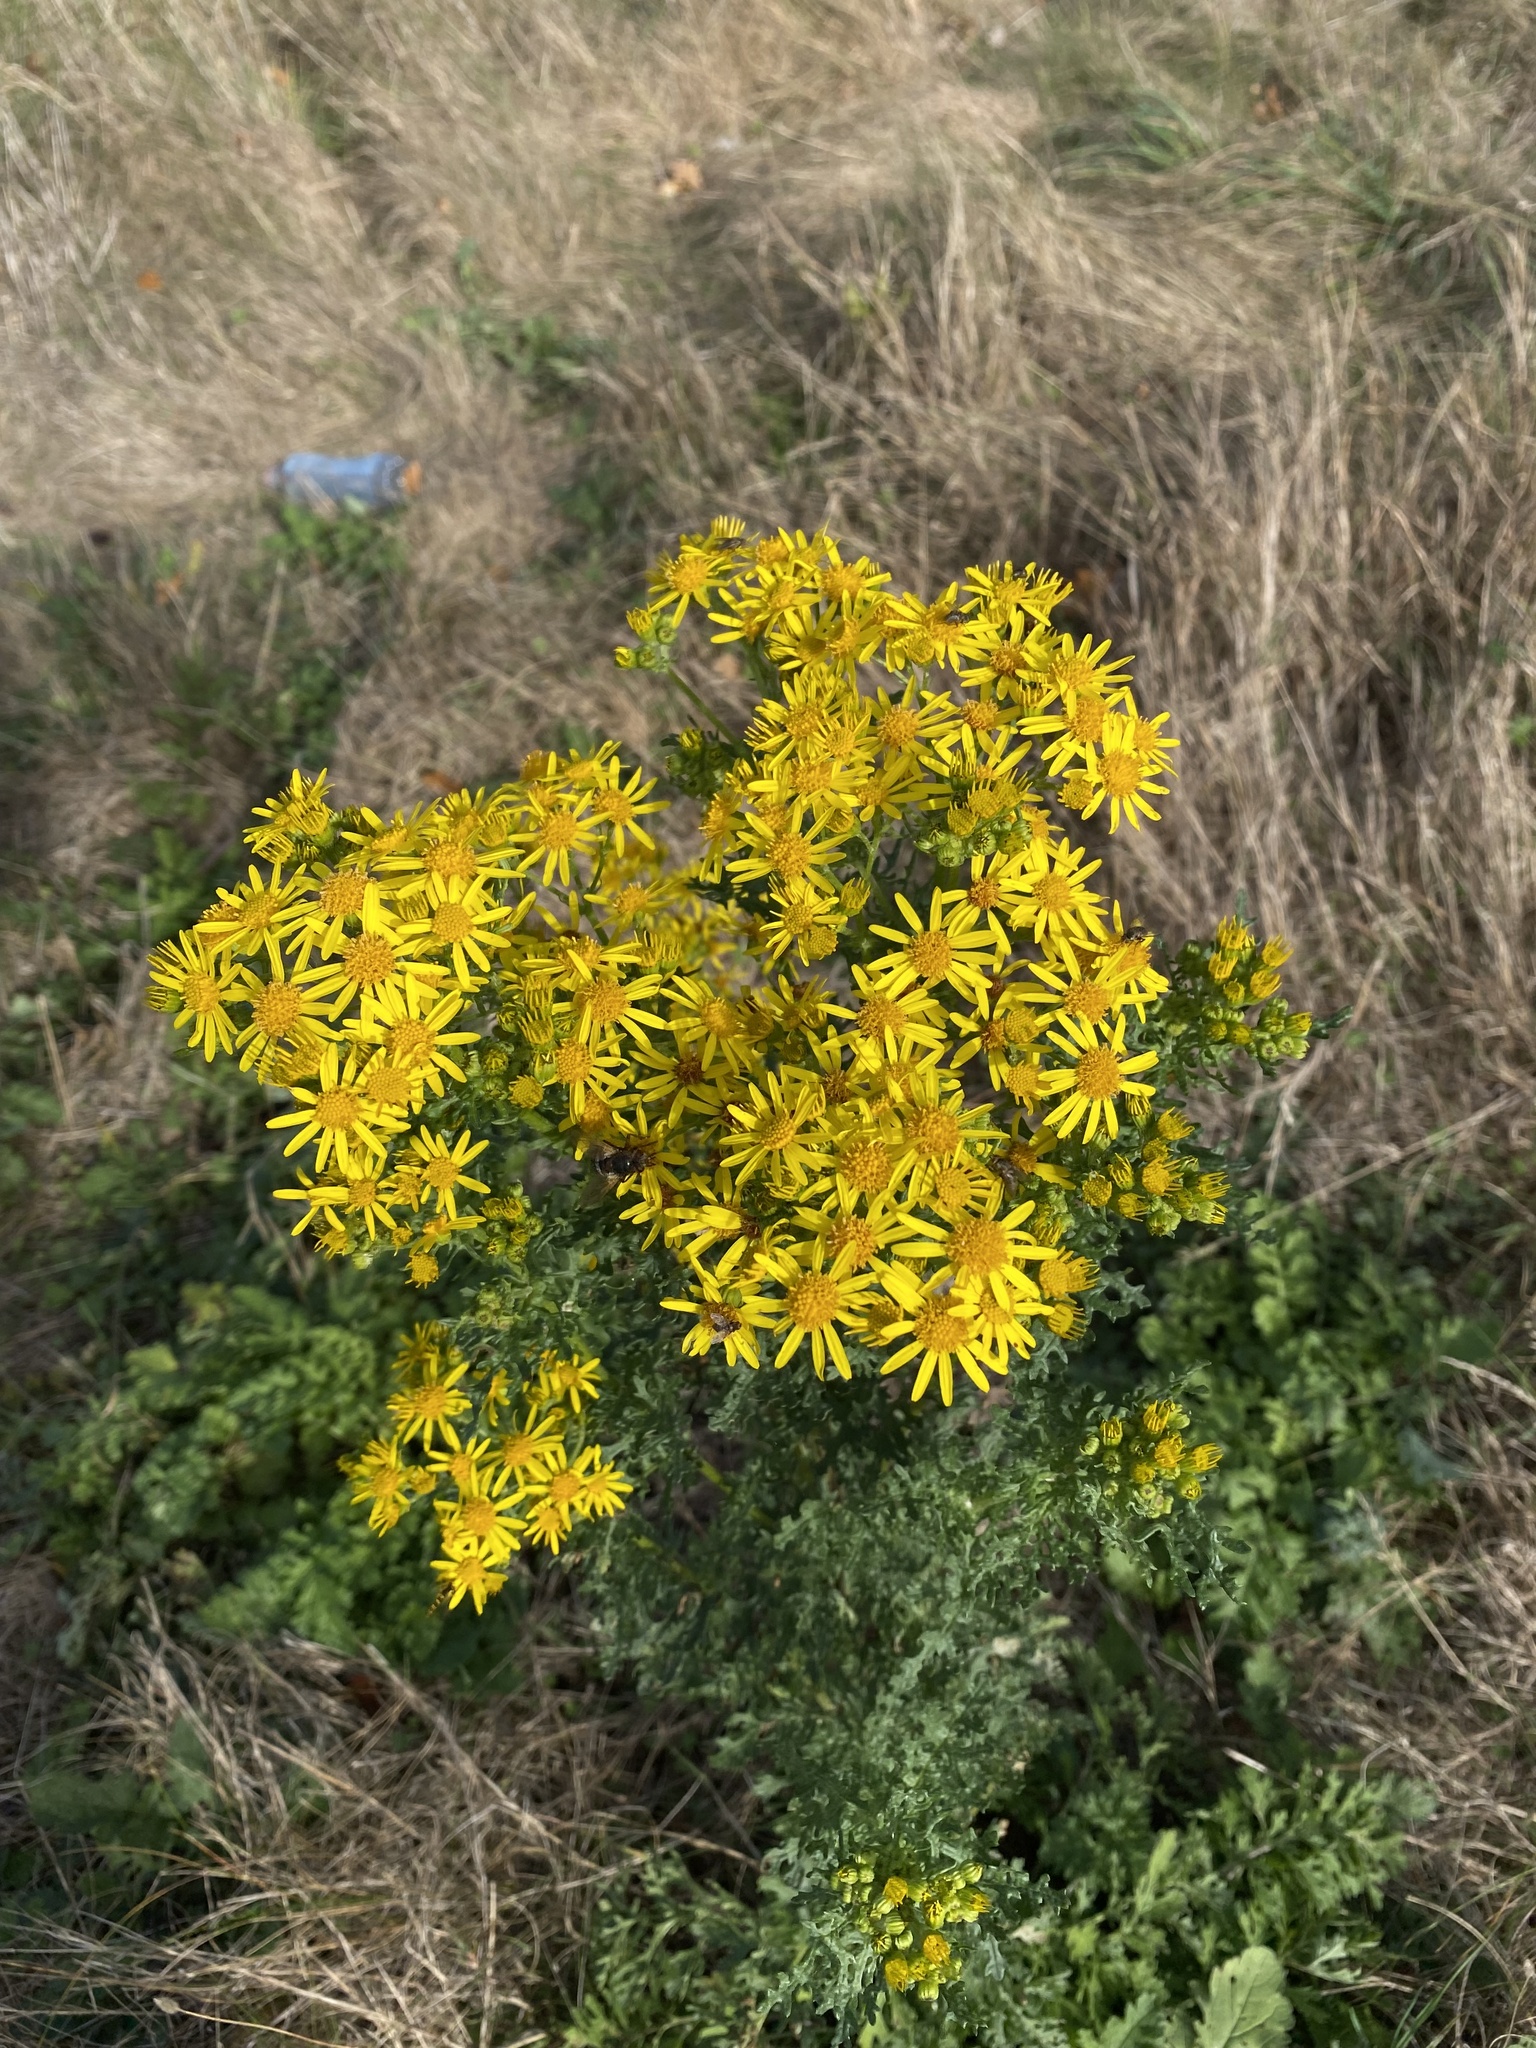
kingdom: Plantae
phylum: Tracheophyta
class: Magnoliopsida
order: Asterales
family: Asteraceae
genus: Jacobaea
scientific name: Jacobaea vulgaris
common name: Stinking willie
